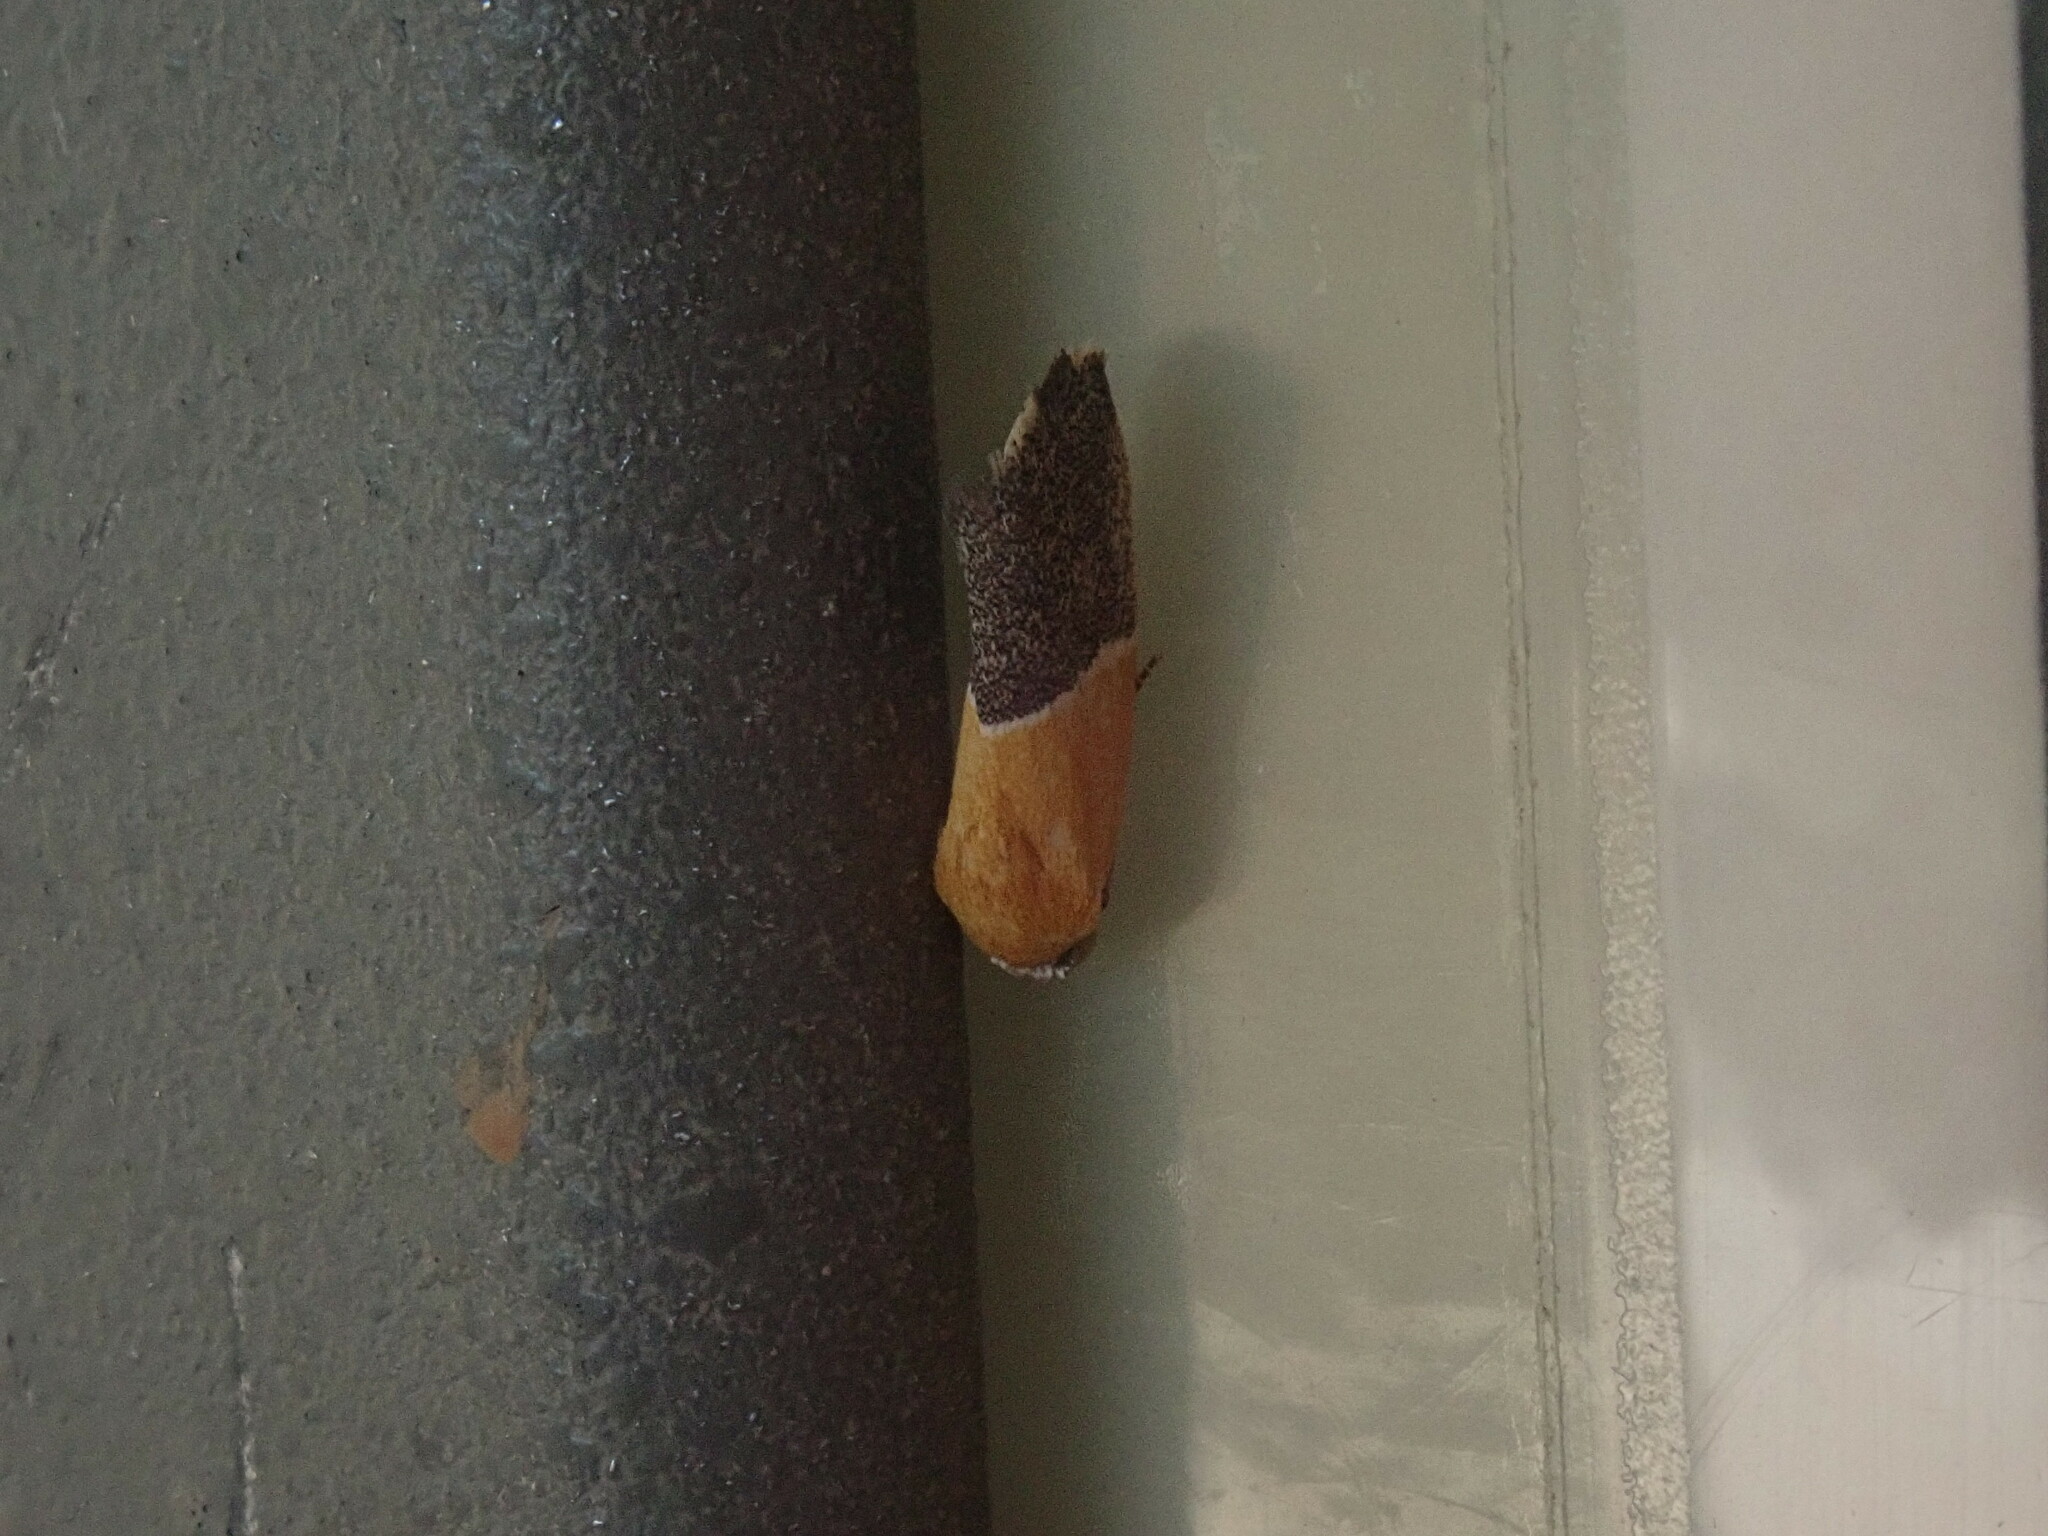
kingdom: Animalia
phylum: Arthropoda
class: Insecta
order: Lepidoptera
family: Noctuidae
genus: Acontia
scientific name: Acontia clausula
